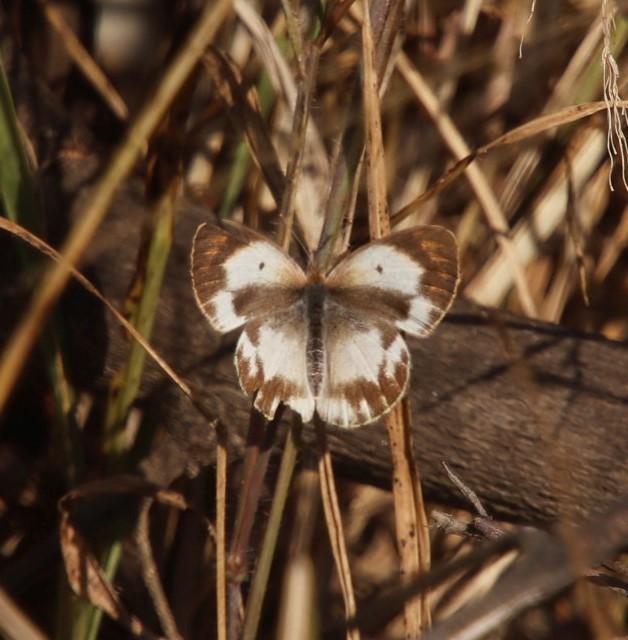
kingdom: Animalia
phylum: Arthropoda
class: Insecta
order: Lepidoptera
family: Pieridae
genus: Colotis
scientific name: Colotis euippe
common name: Round-winged orange tip
